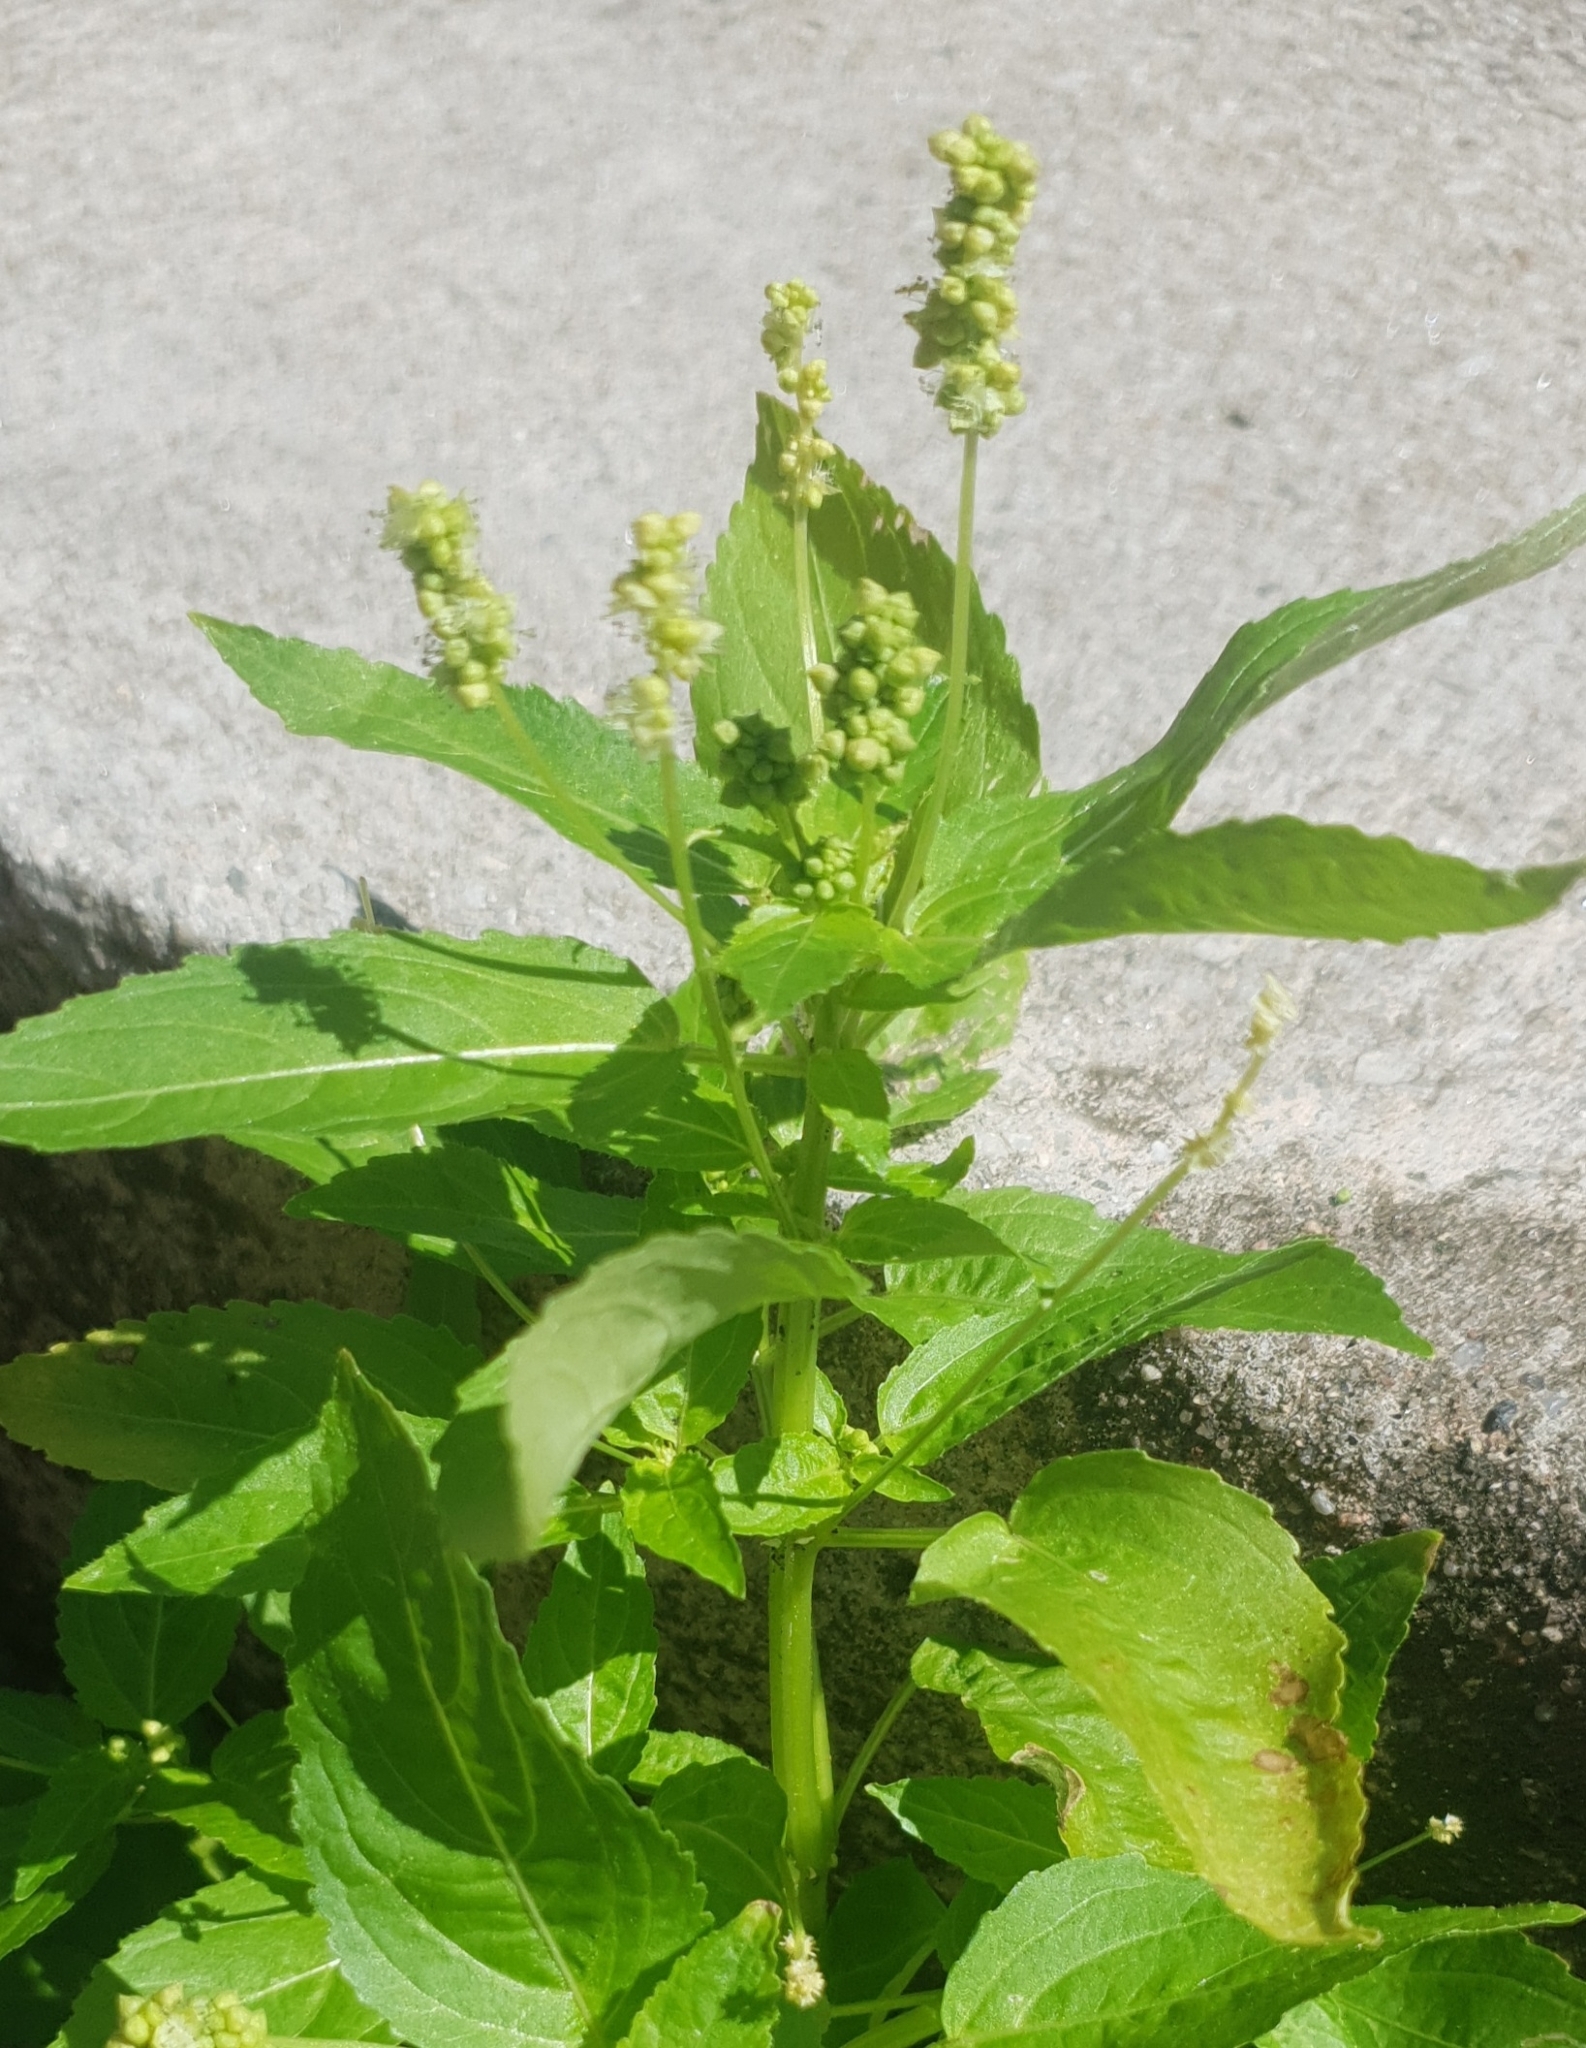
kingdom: Plantae
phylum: Tracheophyta
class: Magnoliopsida
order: Malpighiales
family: Euphorbiaceae
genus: Mercurialis
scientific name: Mercurialis annua
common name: Annual mercury
